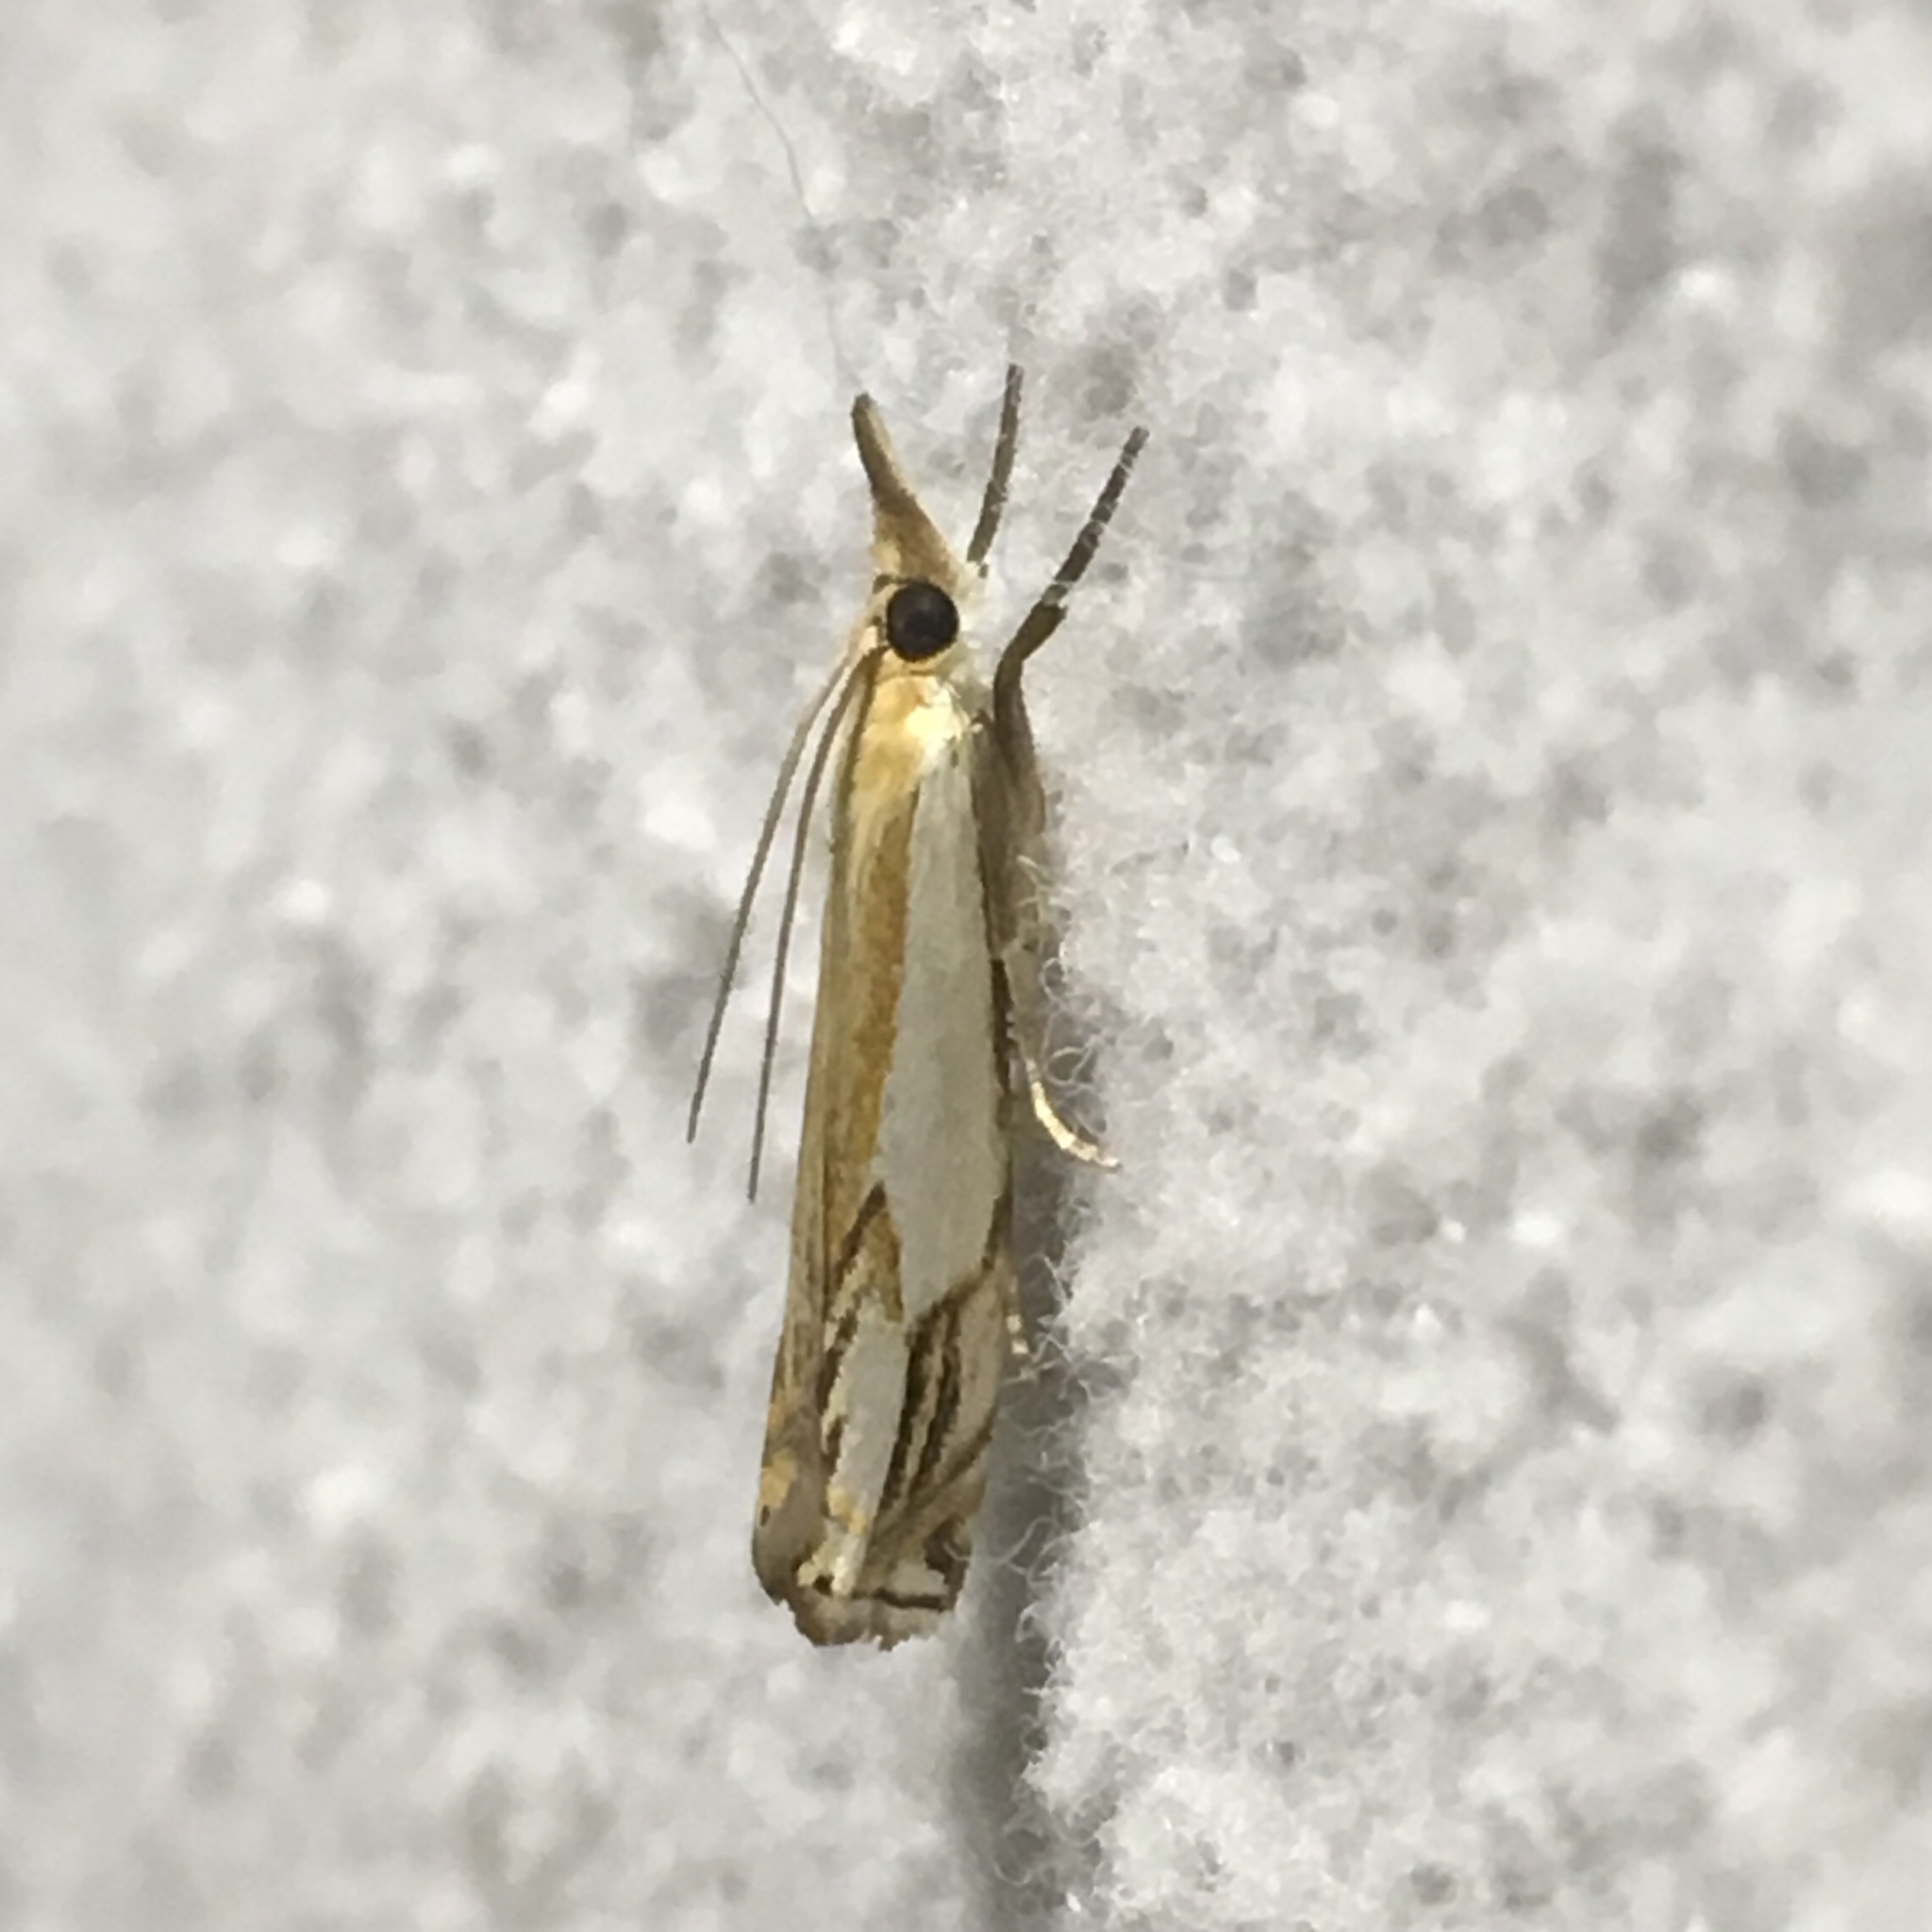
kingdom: Animalia
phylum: Arthropoda
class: Insecta
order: Lepidoptera
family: Crambidae
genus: Crambus
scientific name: Crambus agitatellus
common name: Double-banded grass-veneer
